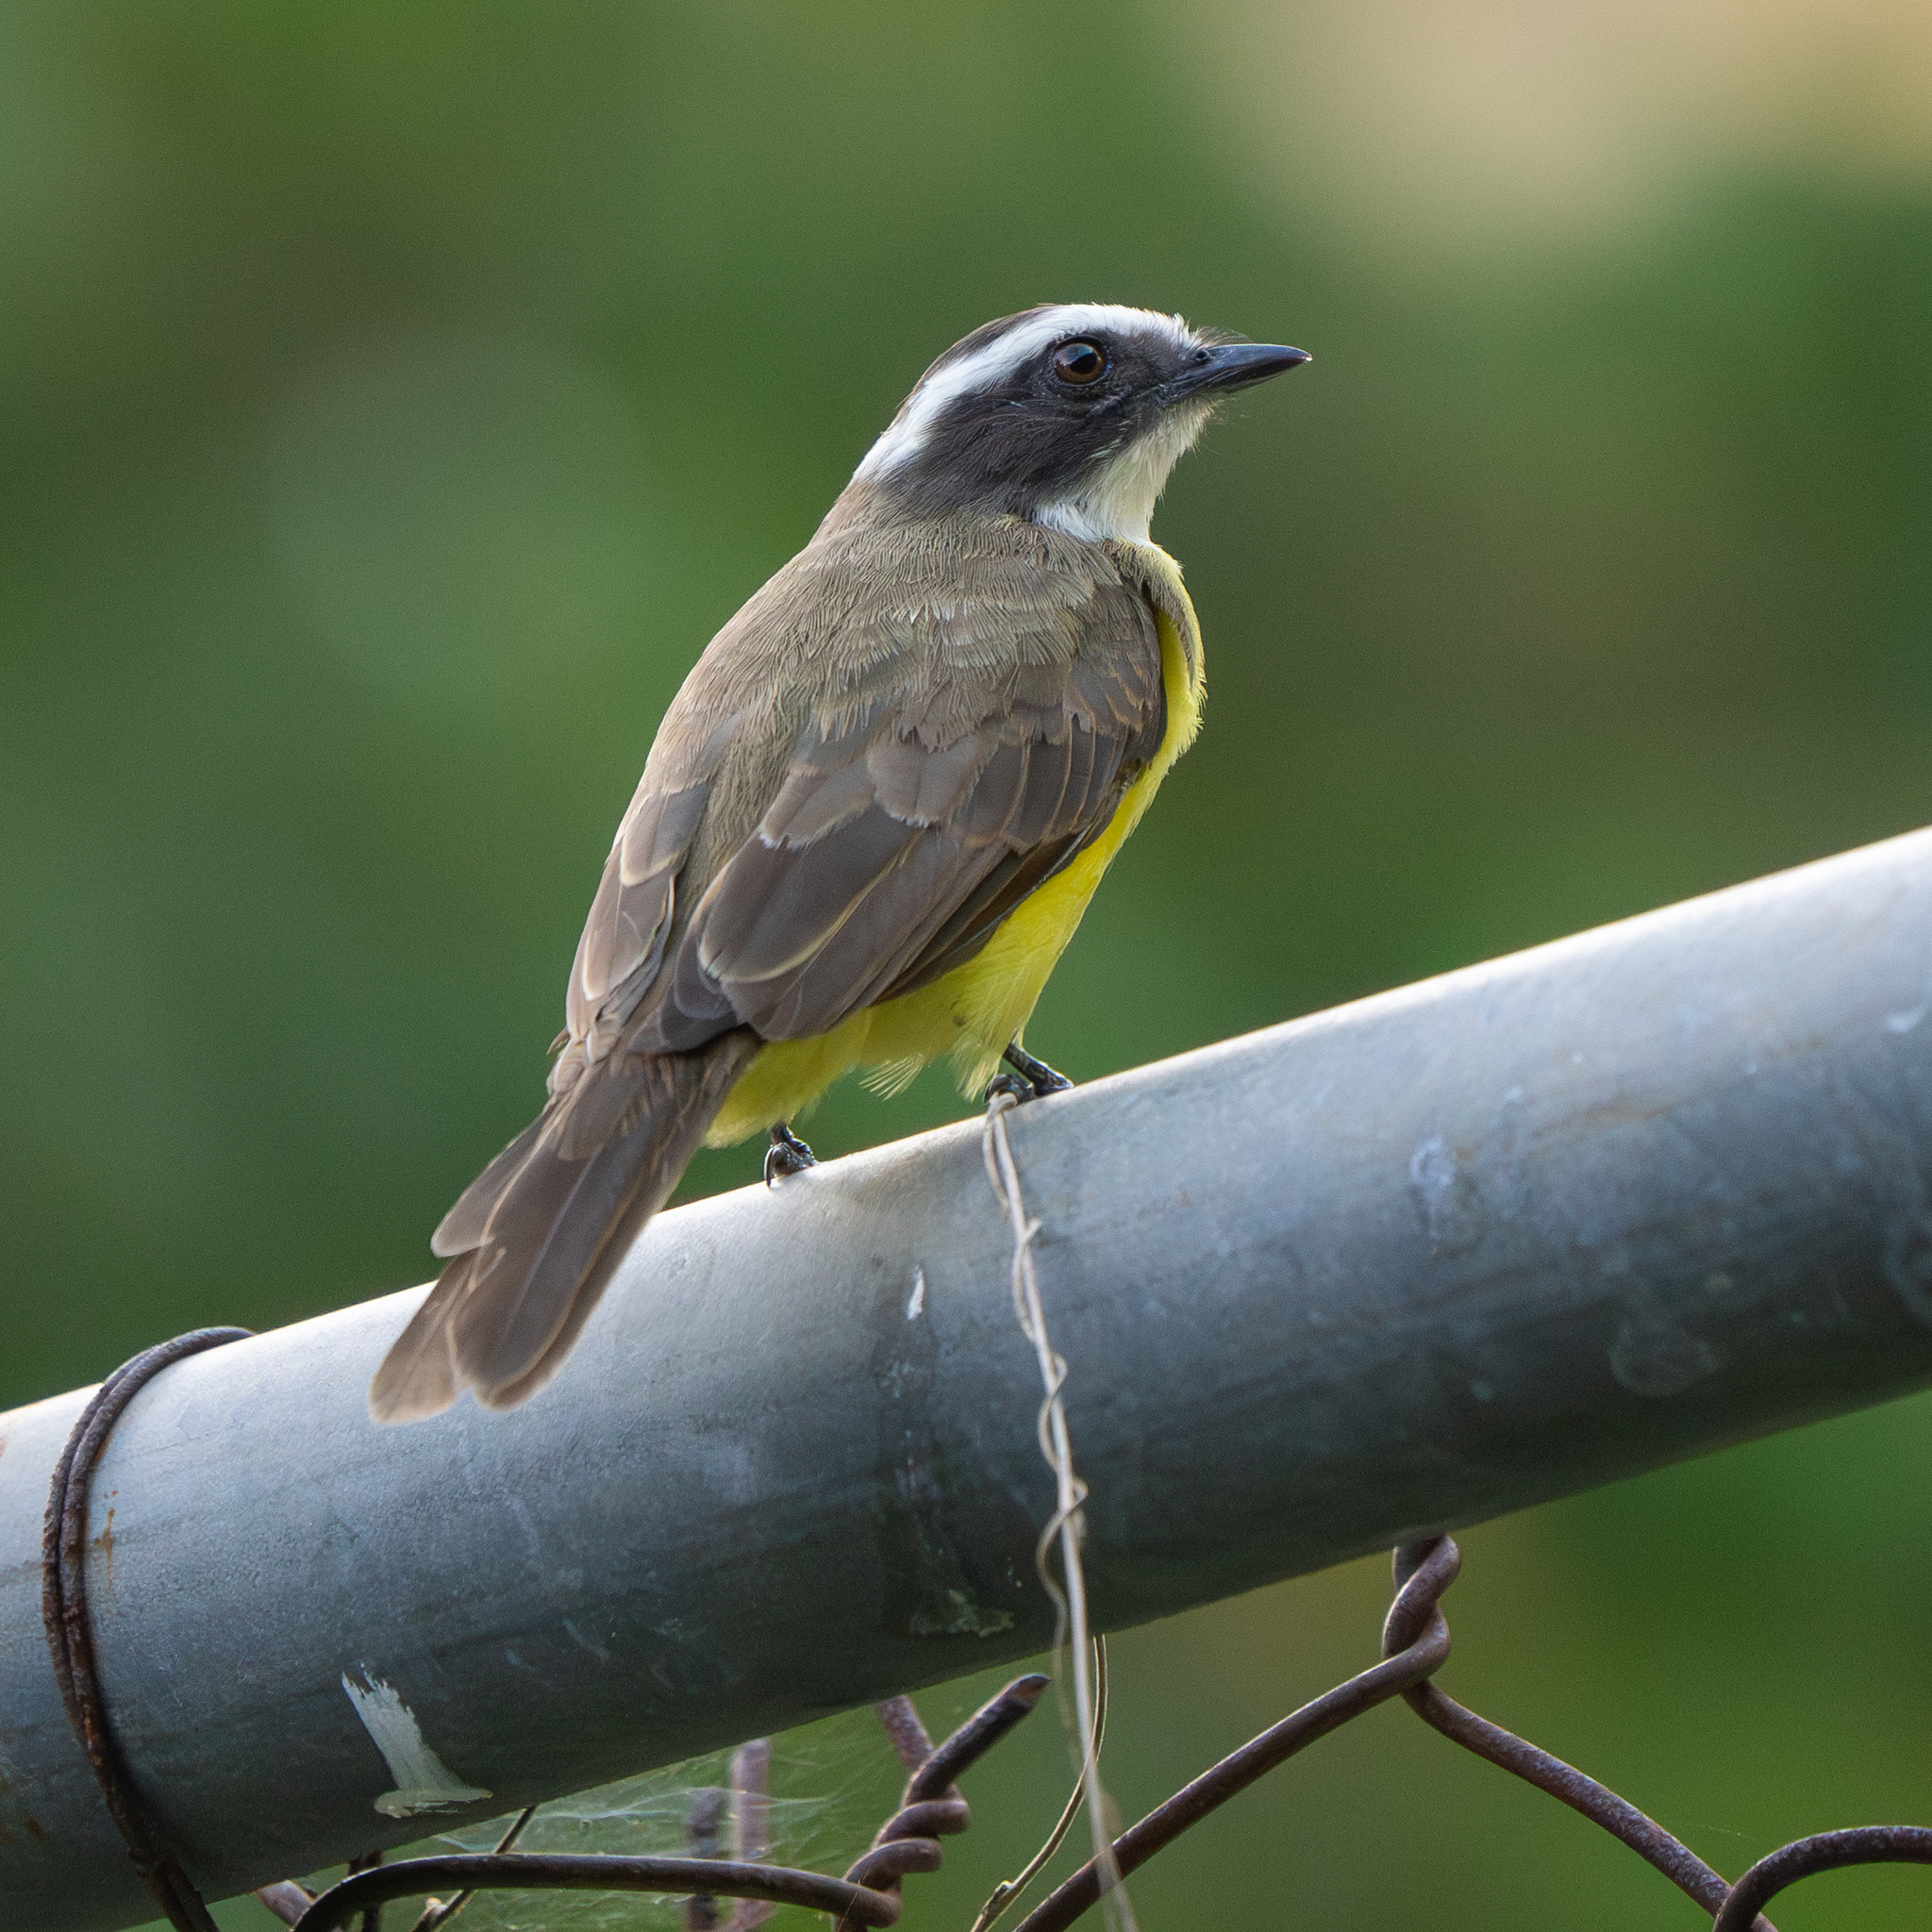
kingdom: Animalia
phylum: Chordata
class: Aves
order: Passeriformes
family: Tyrannidae
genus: Myiozetetes
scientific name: Myiozetetes similis
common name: Social flycatcher
